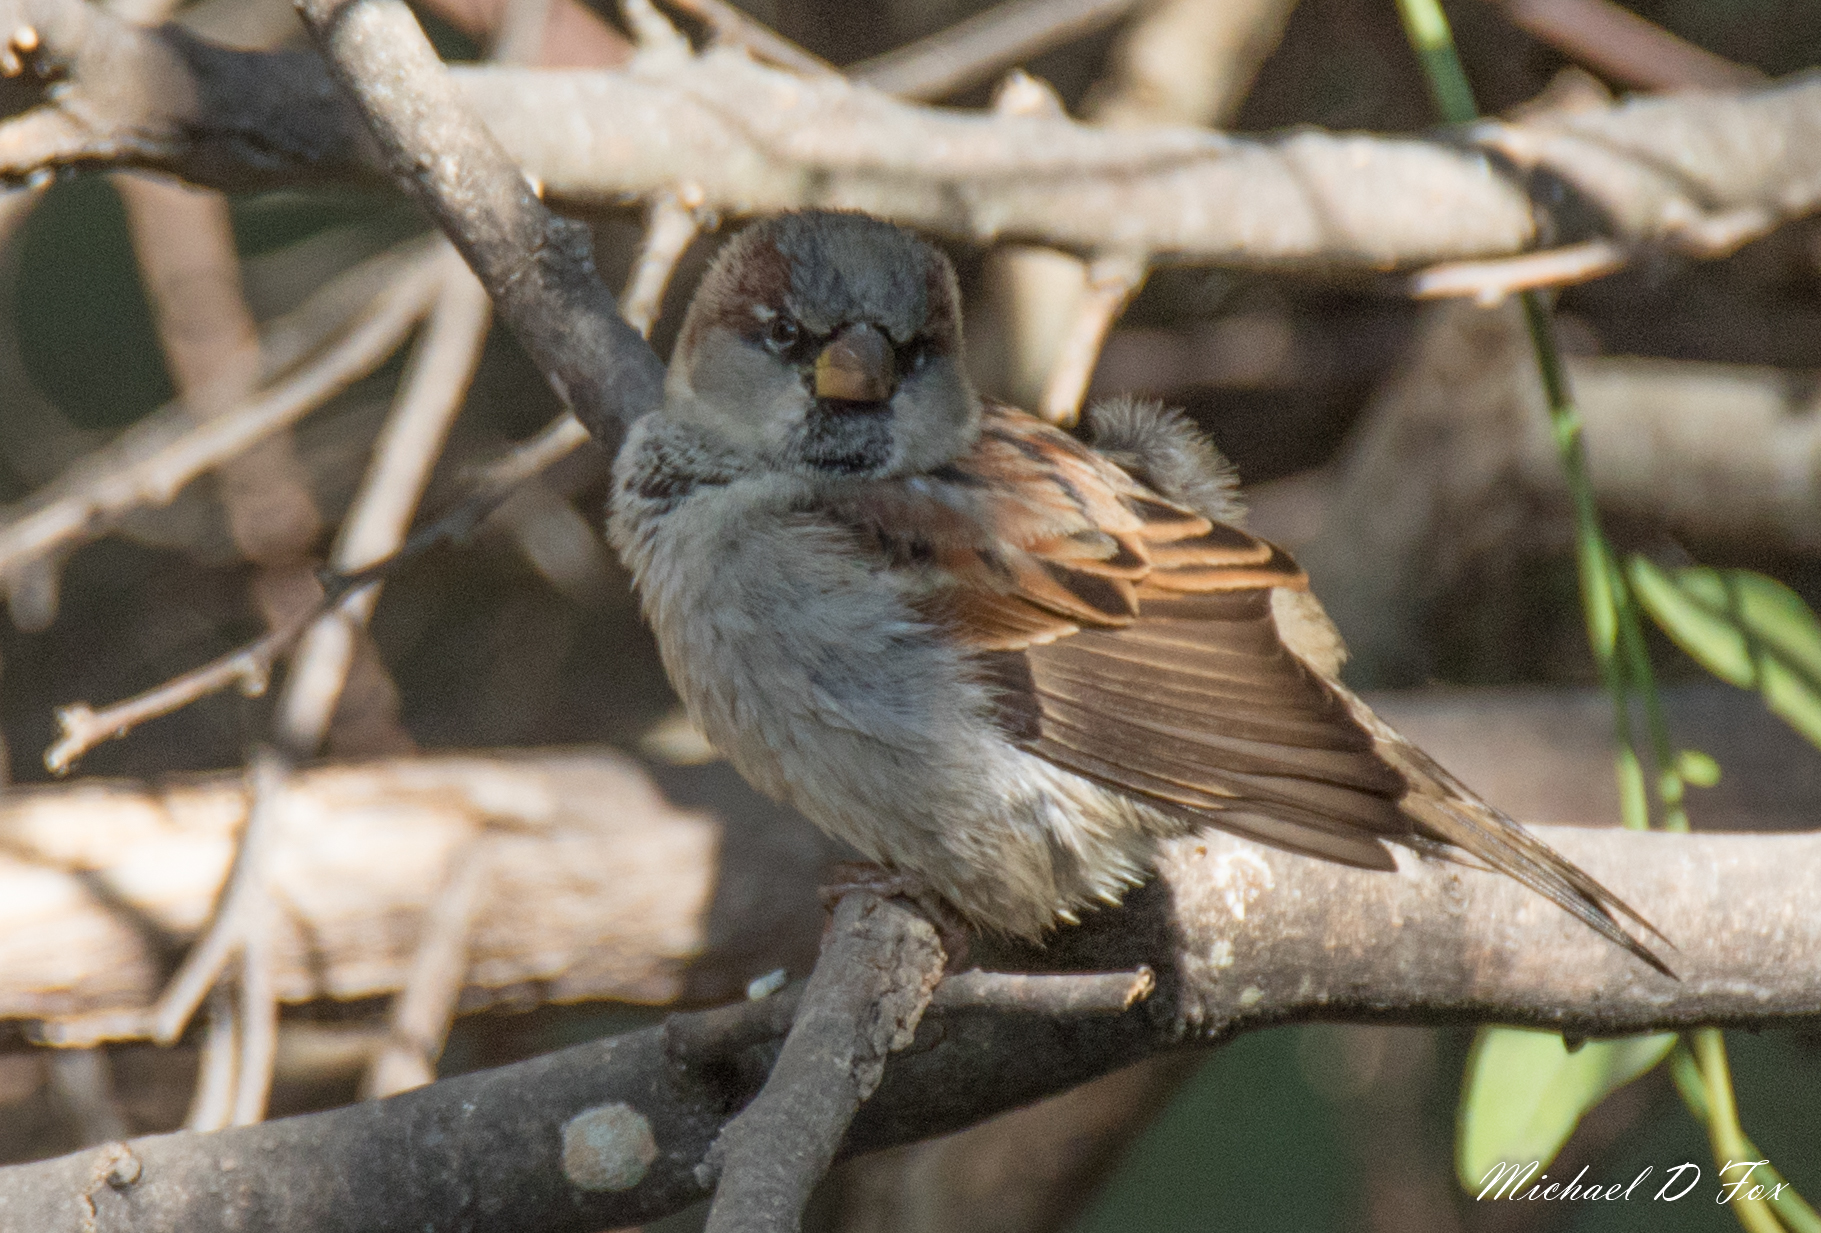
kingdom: Animalia
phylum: Chordata
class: Aves
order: Passeriformes
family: Passeridae
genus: Passer
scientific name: Passer domesticus
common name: House sparrow
